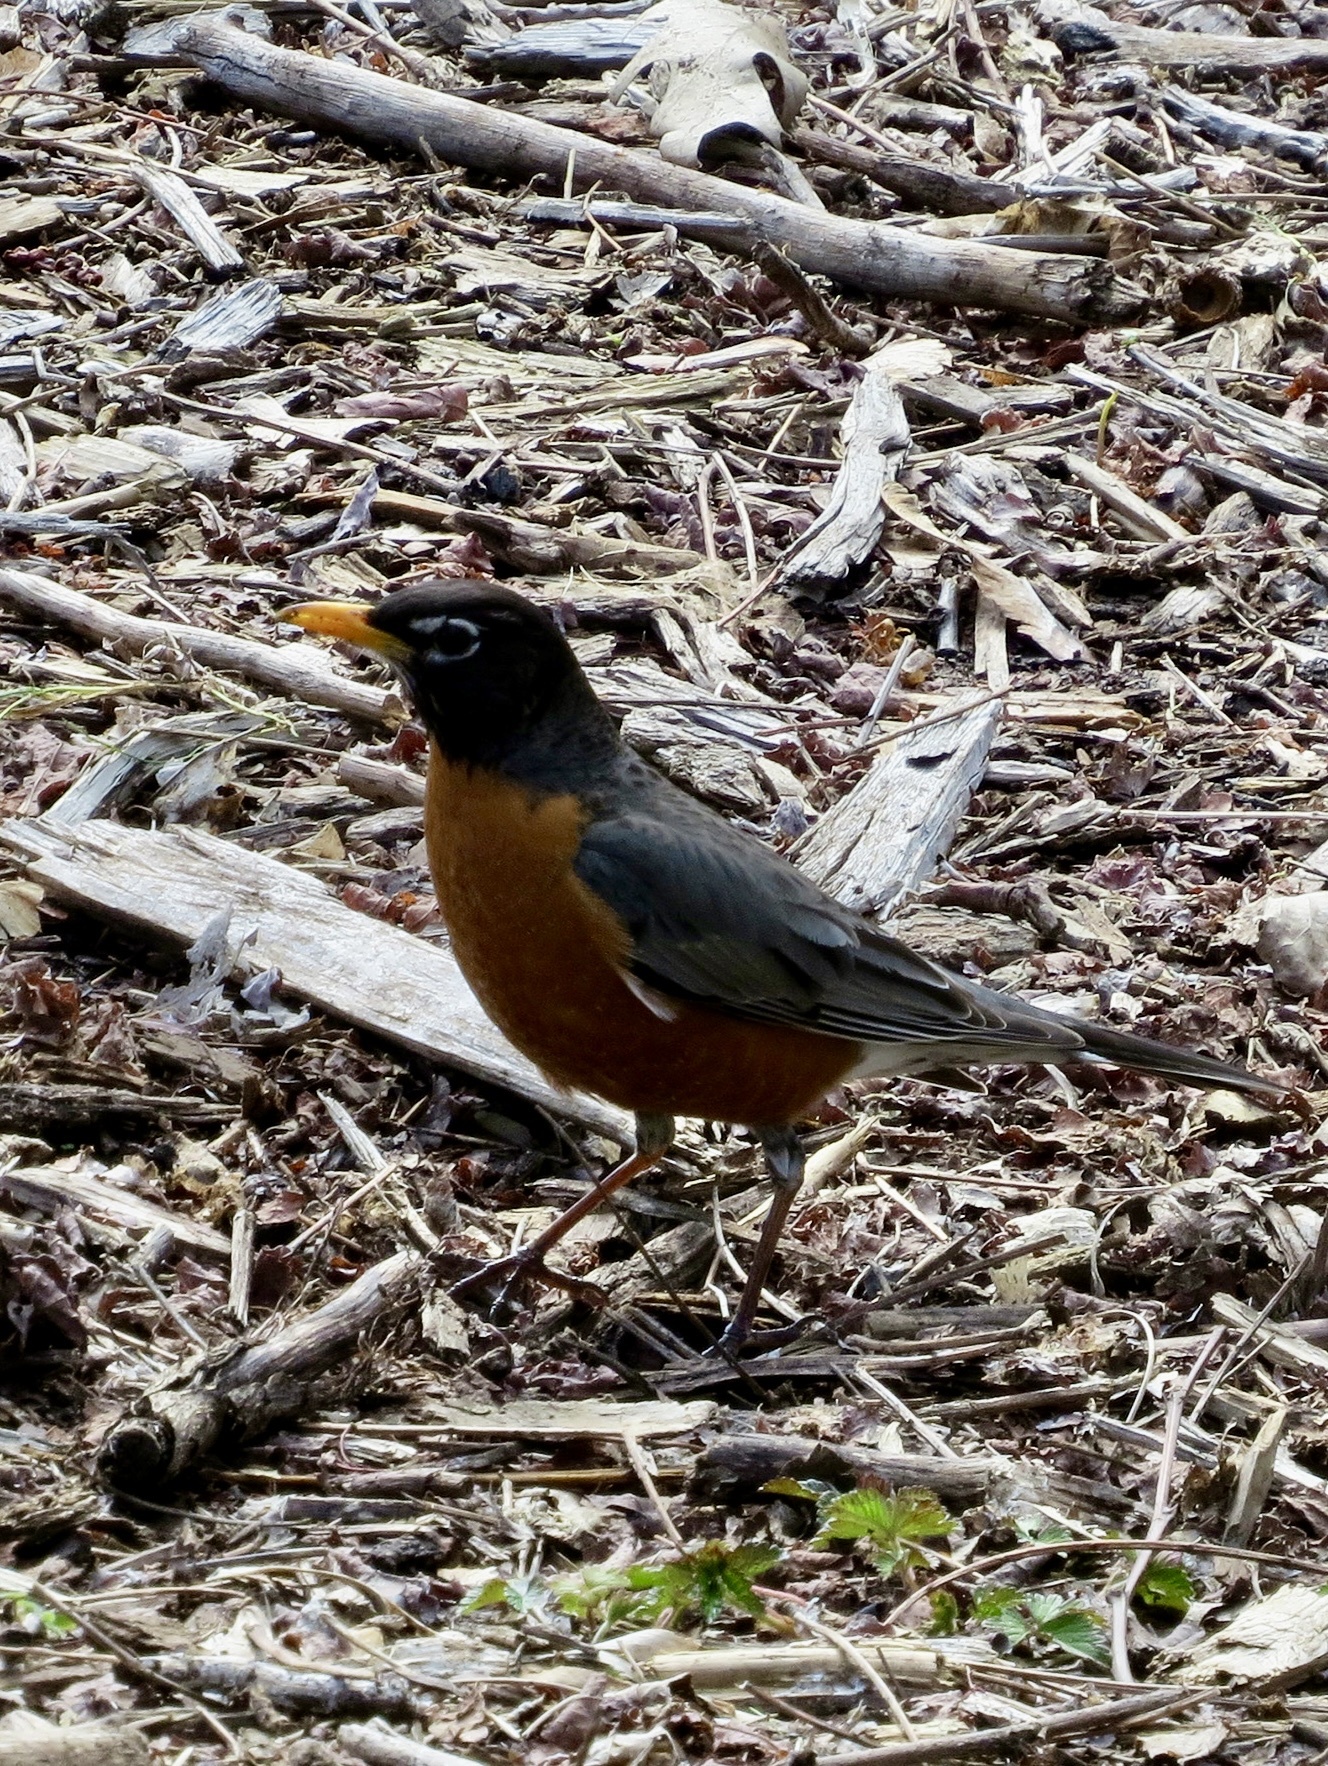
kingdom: Animalia
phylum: Chordata
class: Aves
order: Passeriformes
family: Turdidae
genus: Turdus
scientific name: Turdus migratorius
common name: American robin
